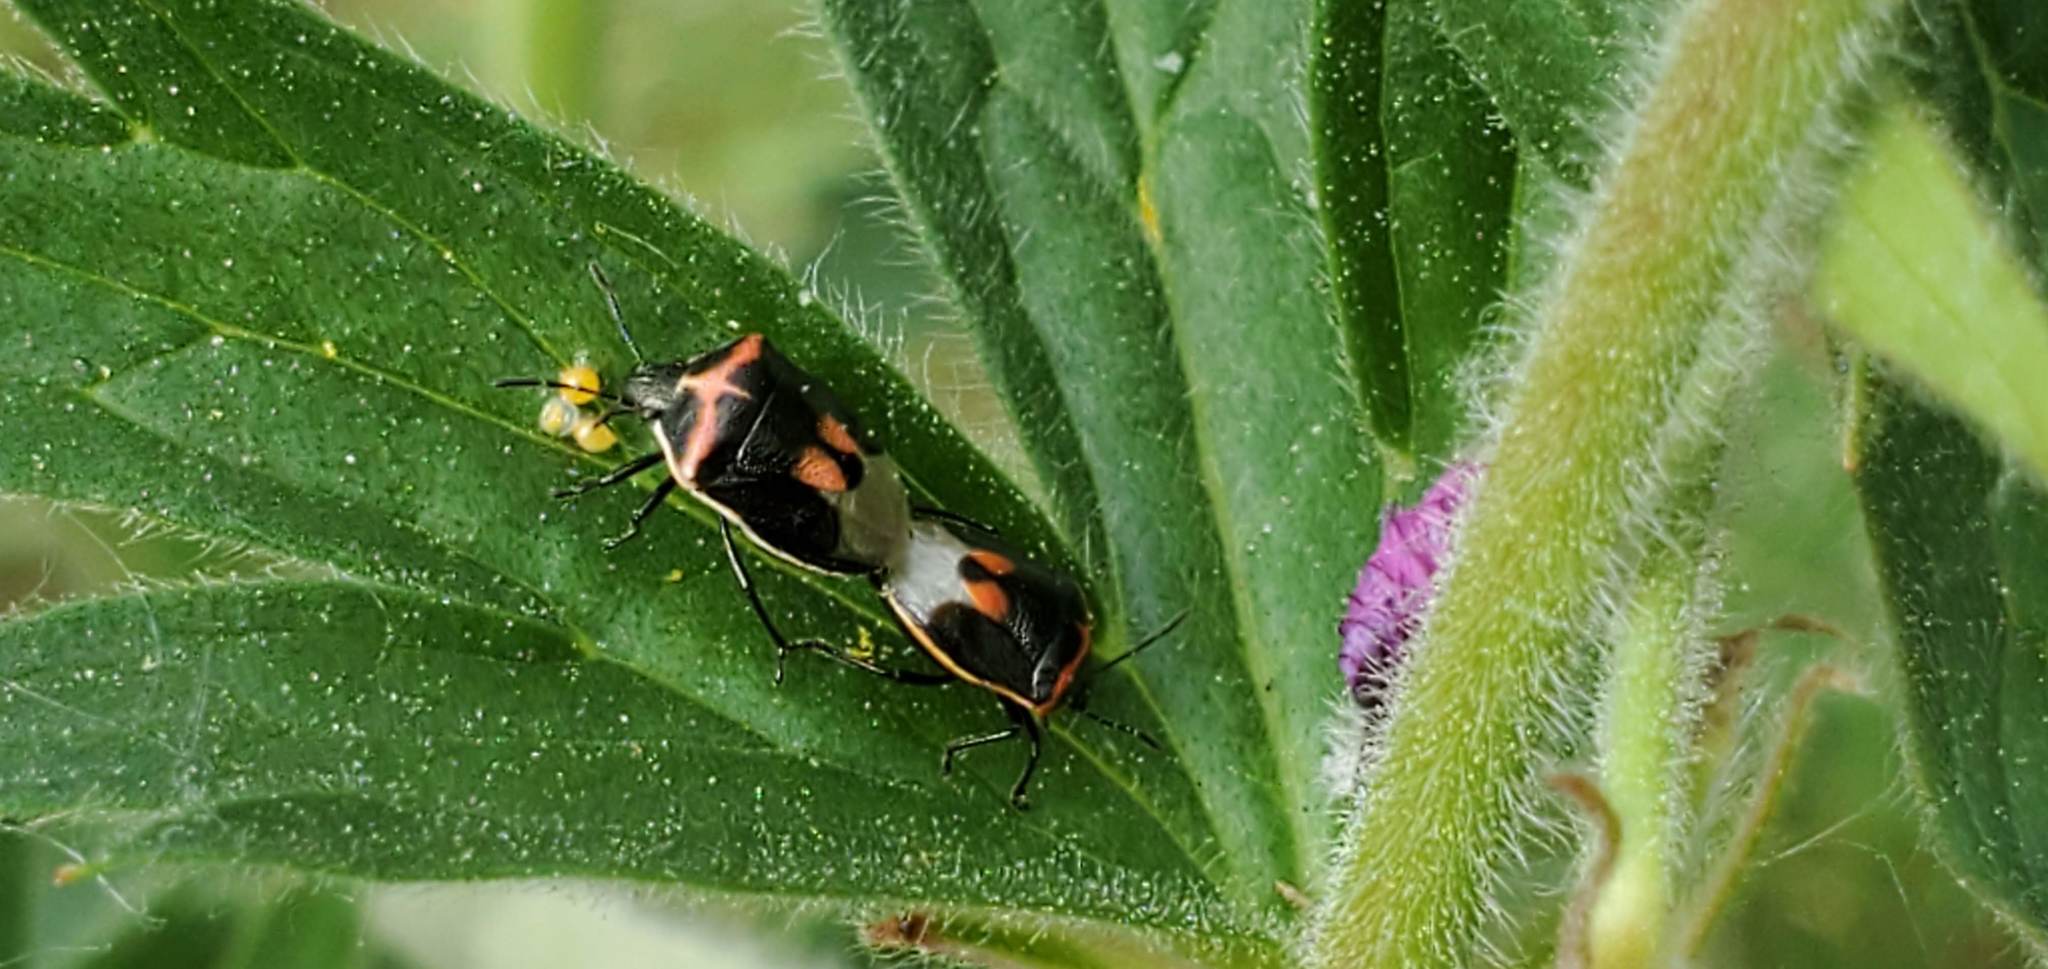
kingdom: Animalia
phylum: Arthropoda
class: Insecta
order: Hemiptera
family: Pentatomidae
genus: Cosmopepla
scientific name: Cosmopepla lintneriana
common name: Twice-stabbed stink bug
